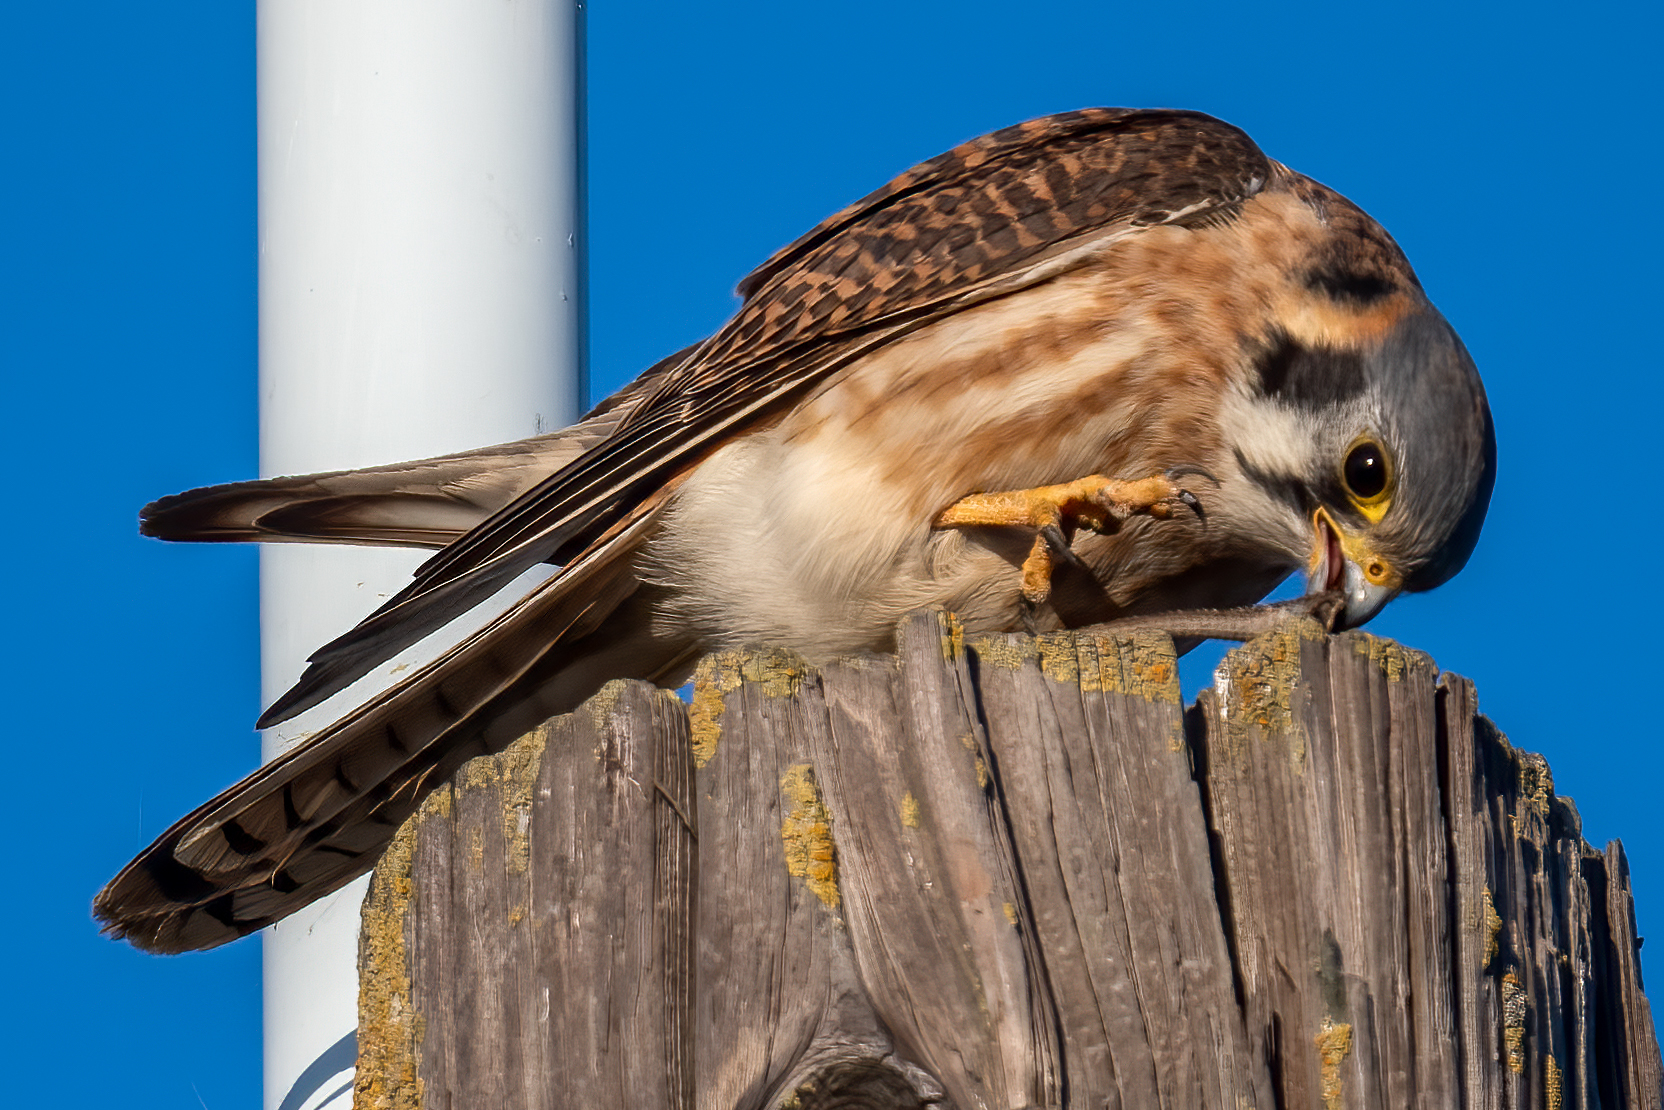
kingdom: Animalia
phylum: Chordata
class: Aves
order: Falconiformes
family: Falconidae
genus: Falco
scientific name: Falco sparverius
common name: American kestrel
